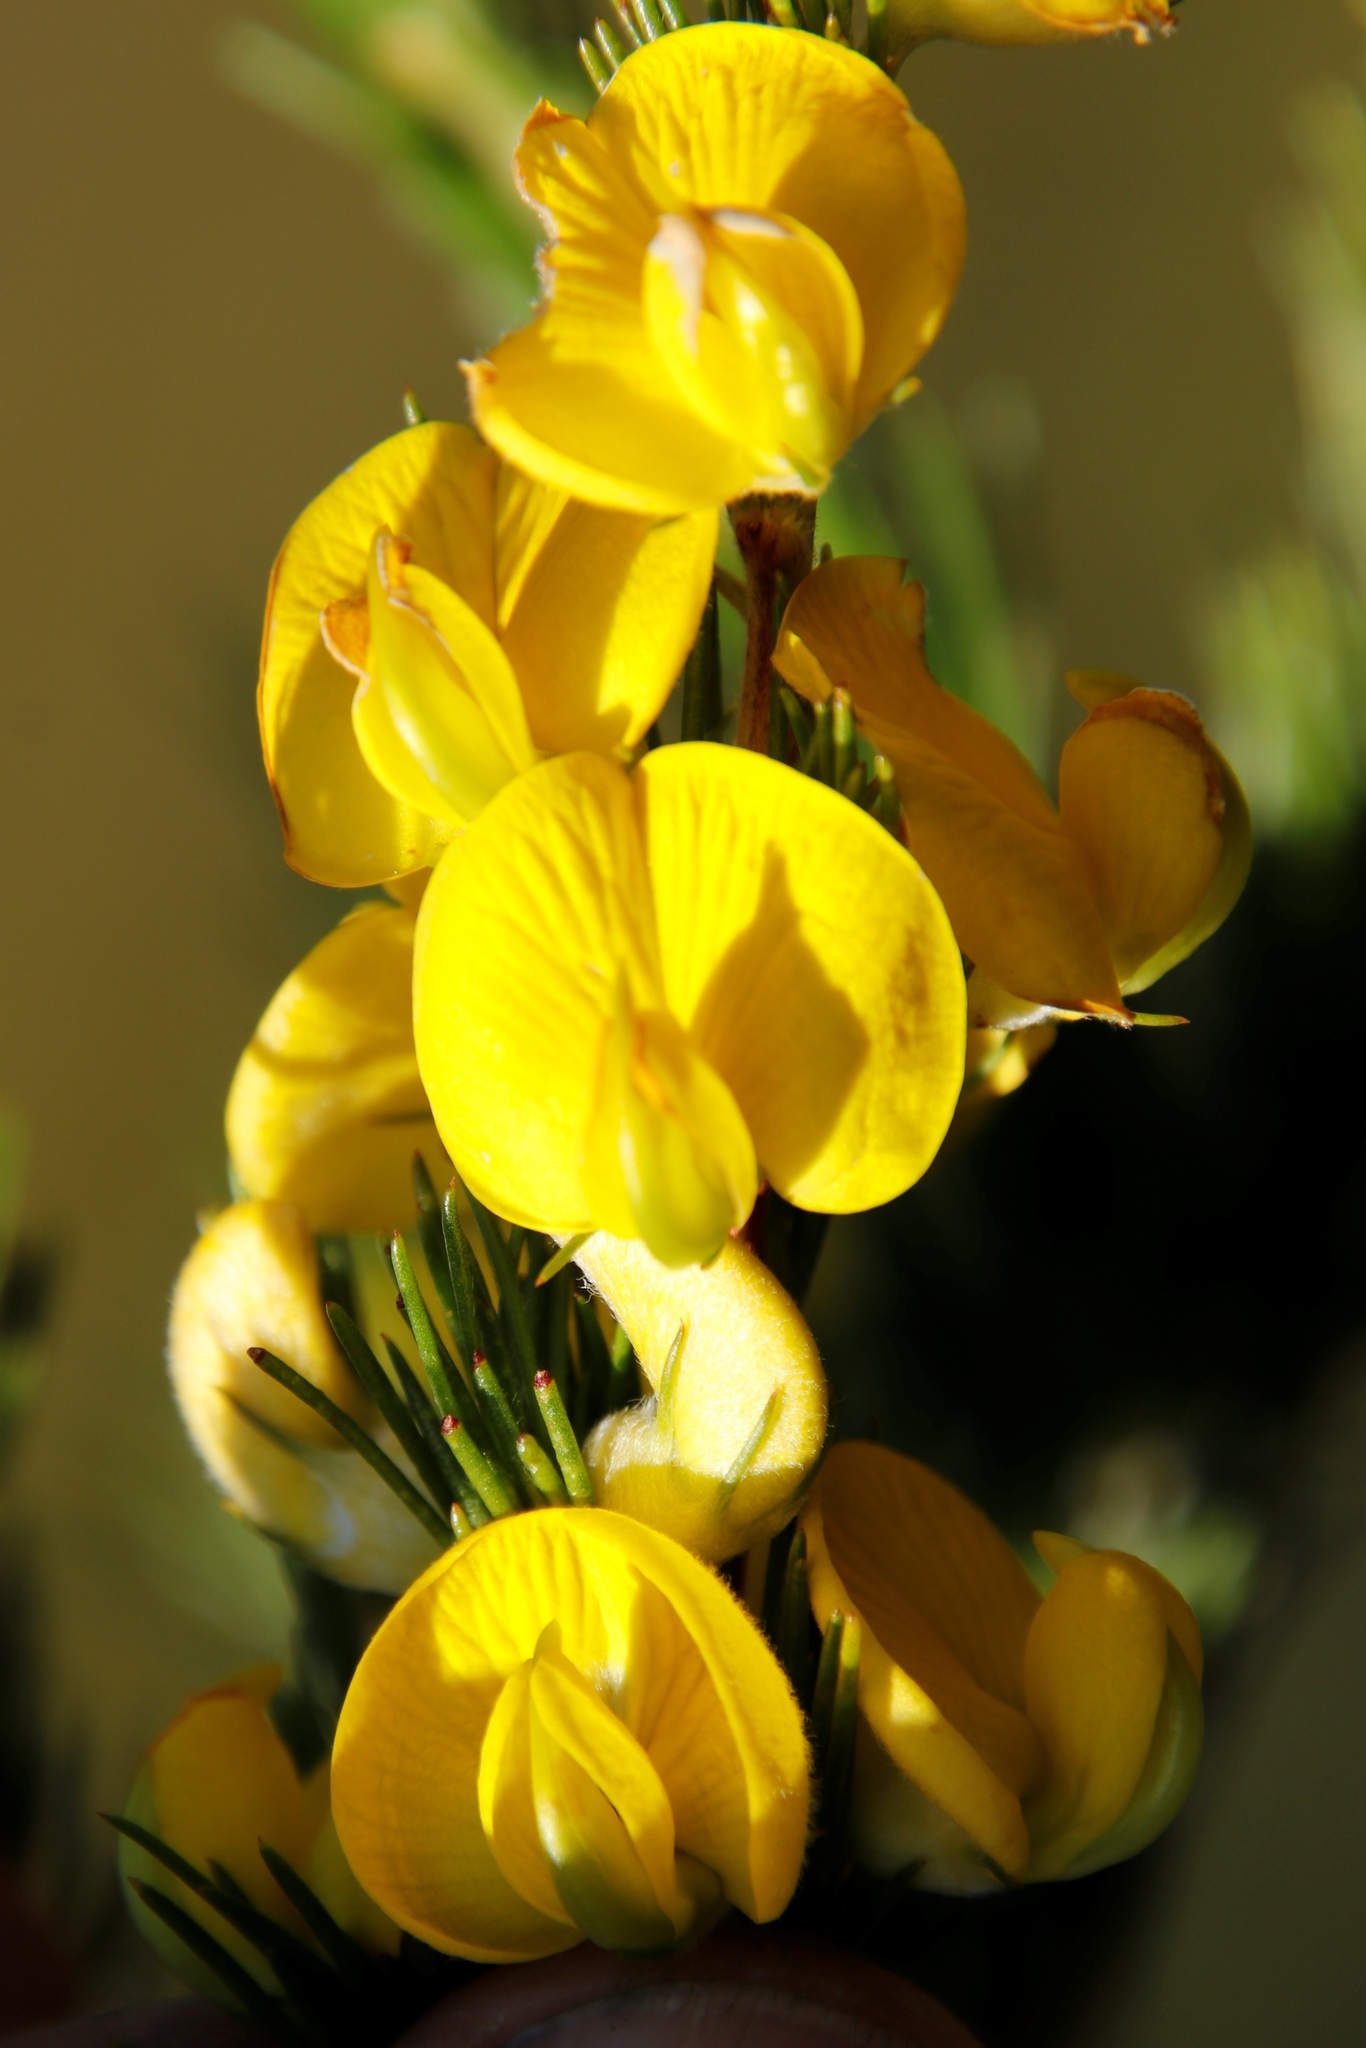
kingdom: Plantae
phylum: Tracheophyta
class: Magnoliopsida
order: Fabales
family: Fabaceae
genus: Aspalathus
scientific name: Aspalathus willdenowiana
